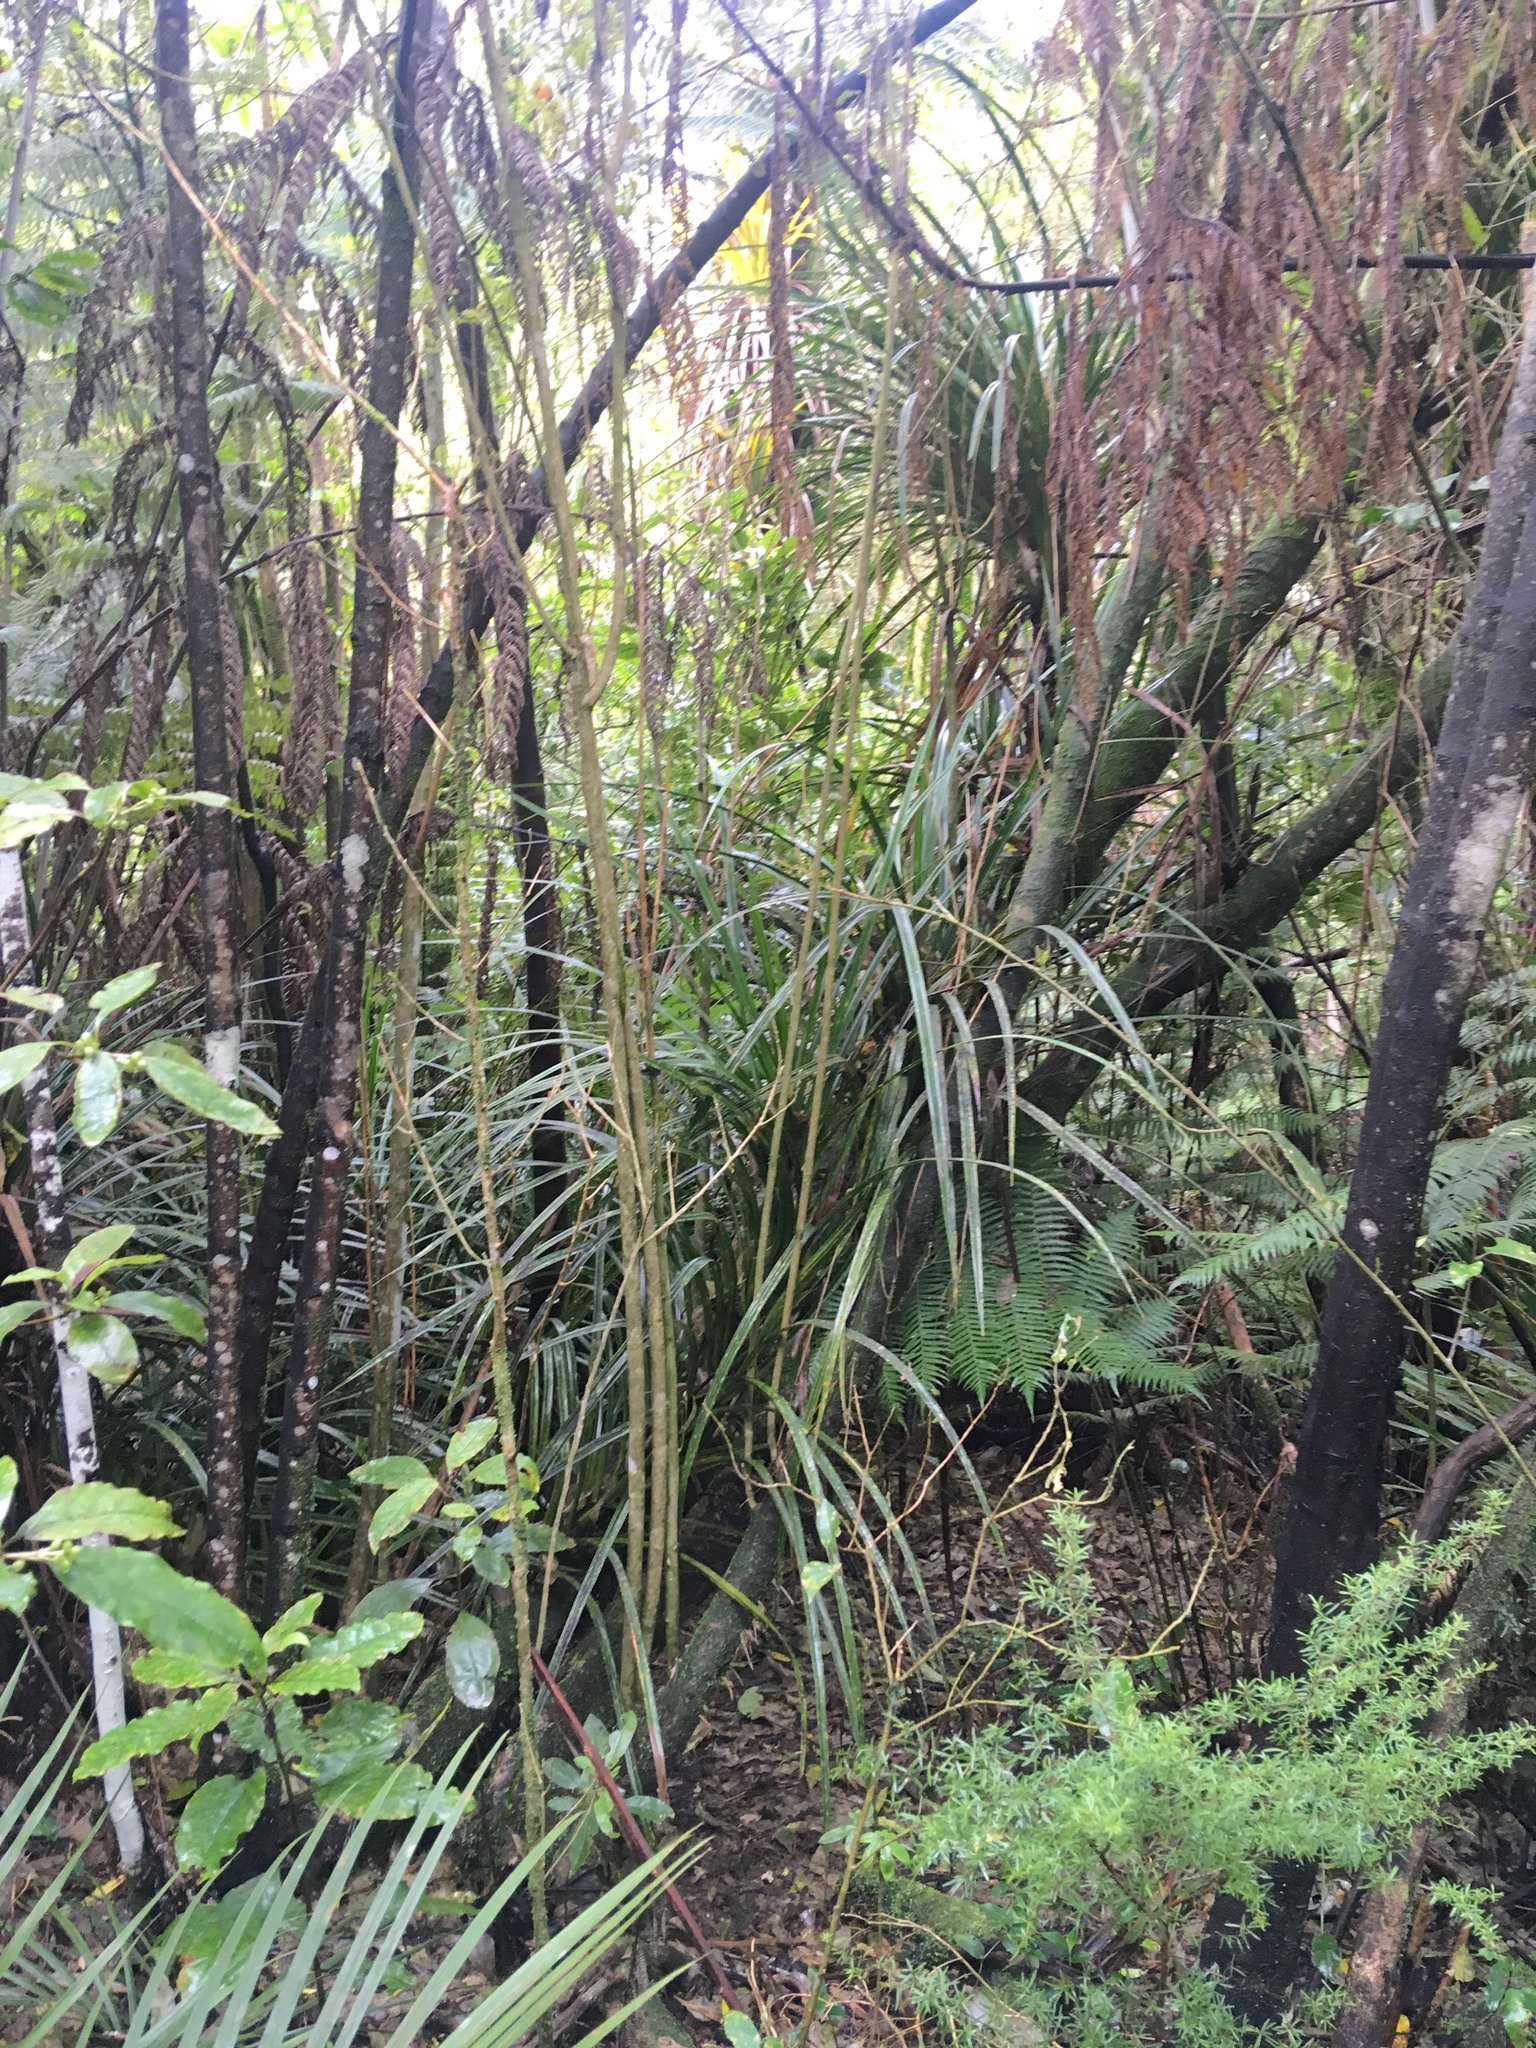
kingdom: Plantae
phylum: Tracheophyta
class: Liliopsida
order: Pandanales
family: Pandanaceae
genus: Freycinetia
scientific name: Freycinetia banksii
